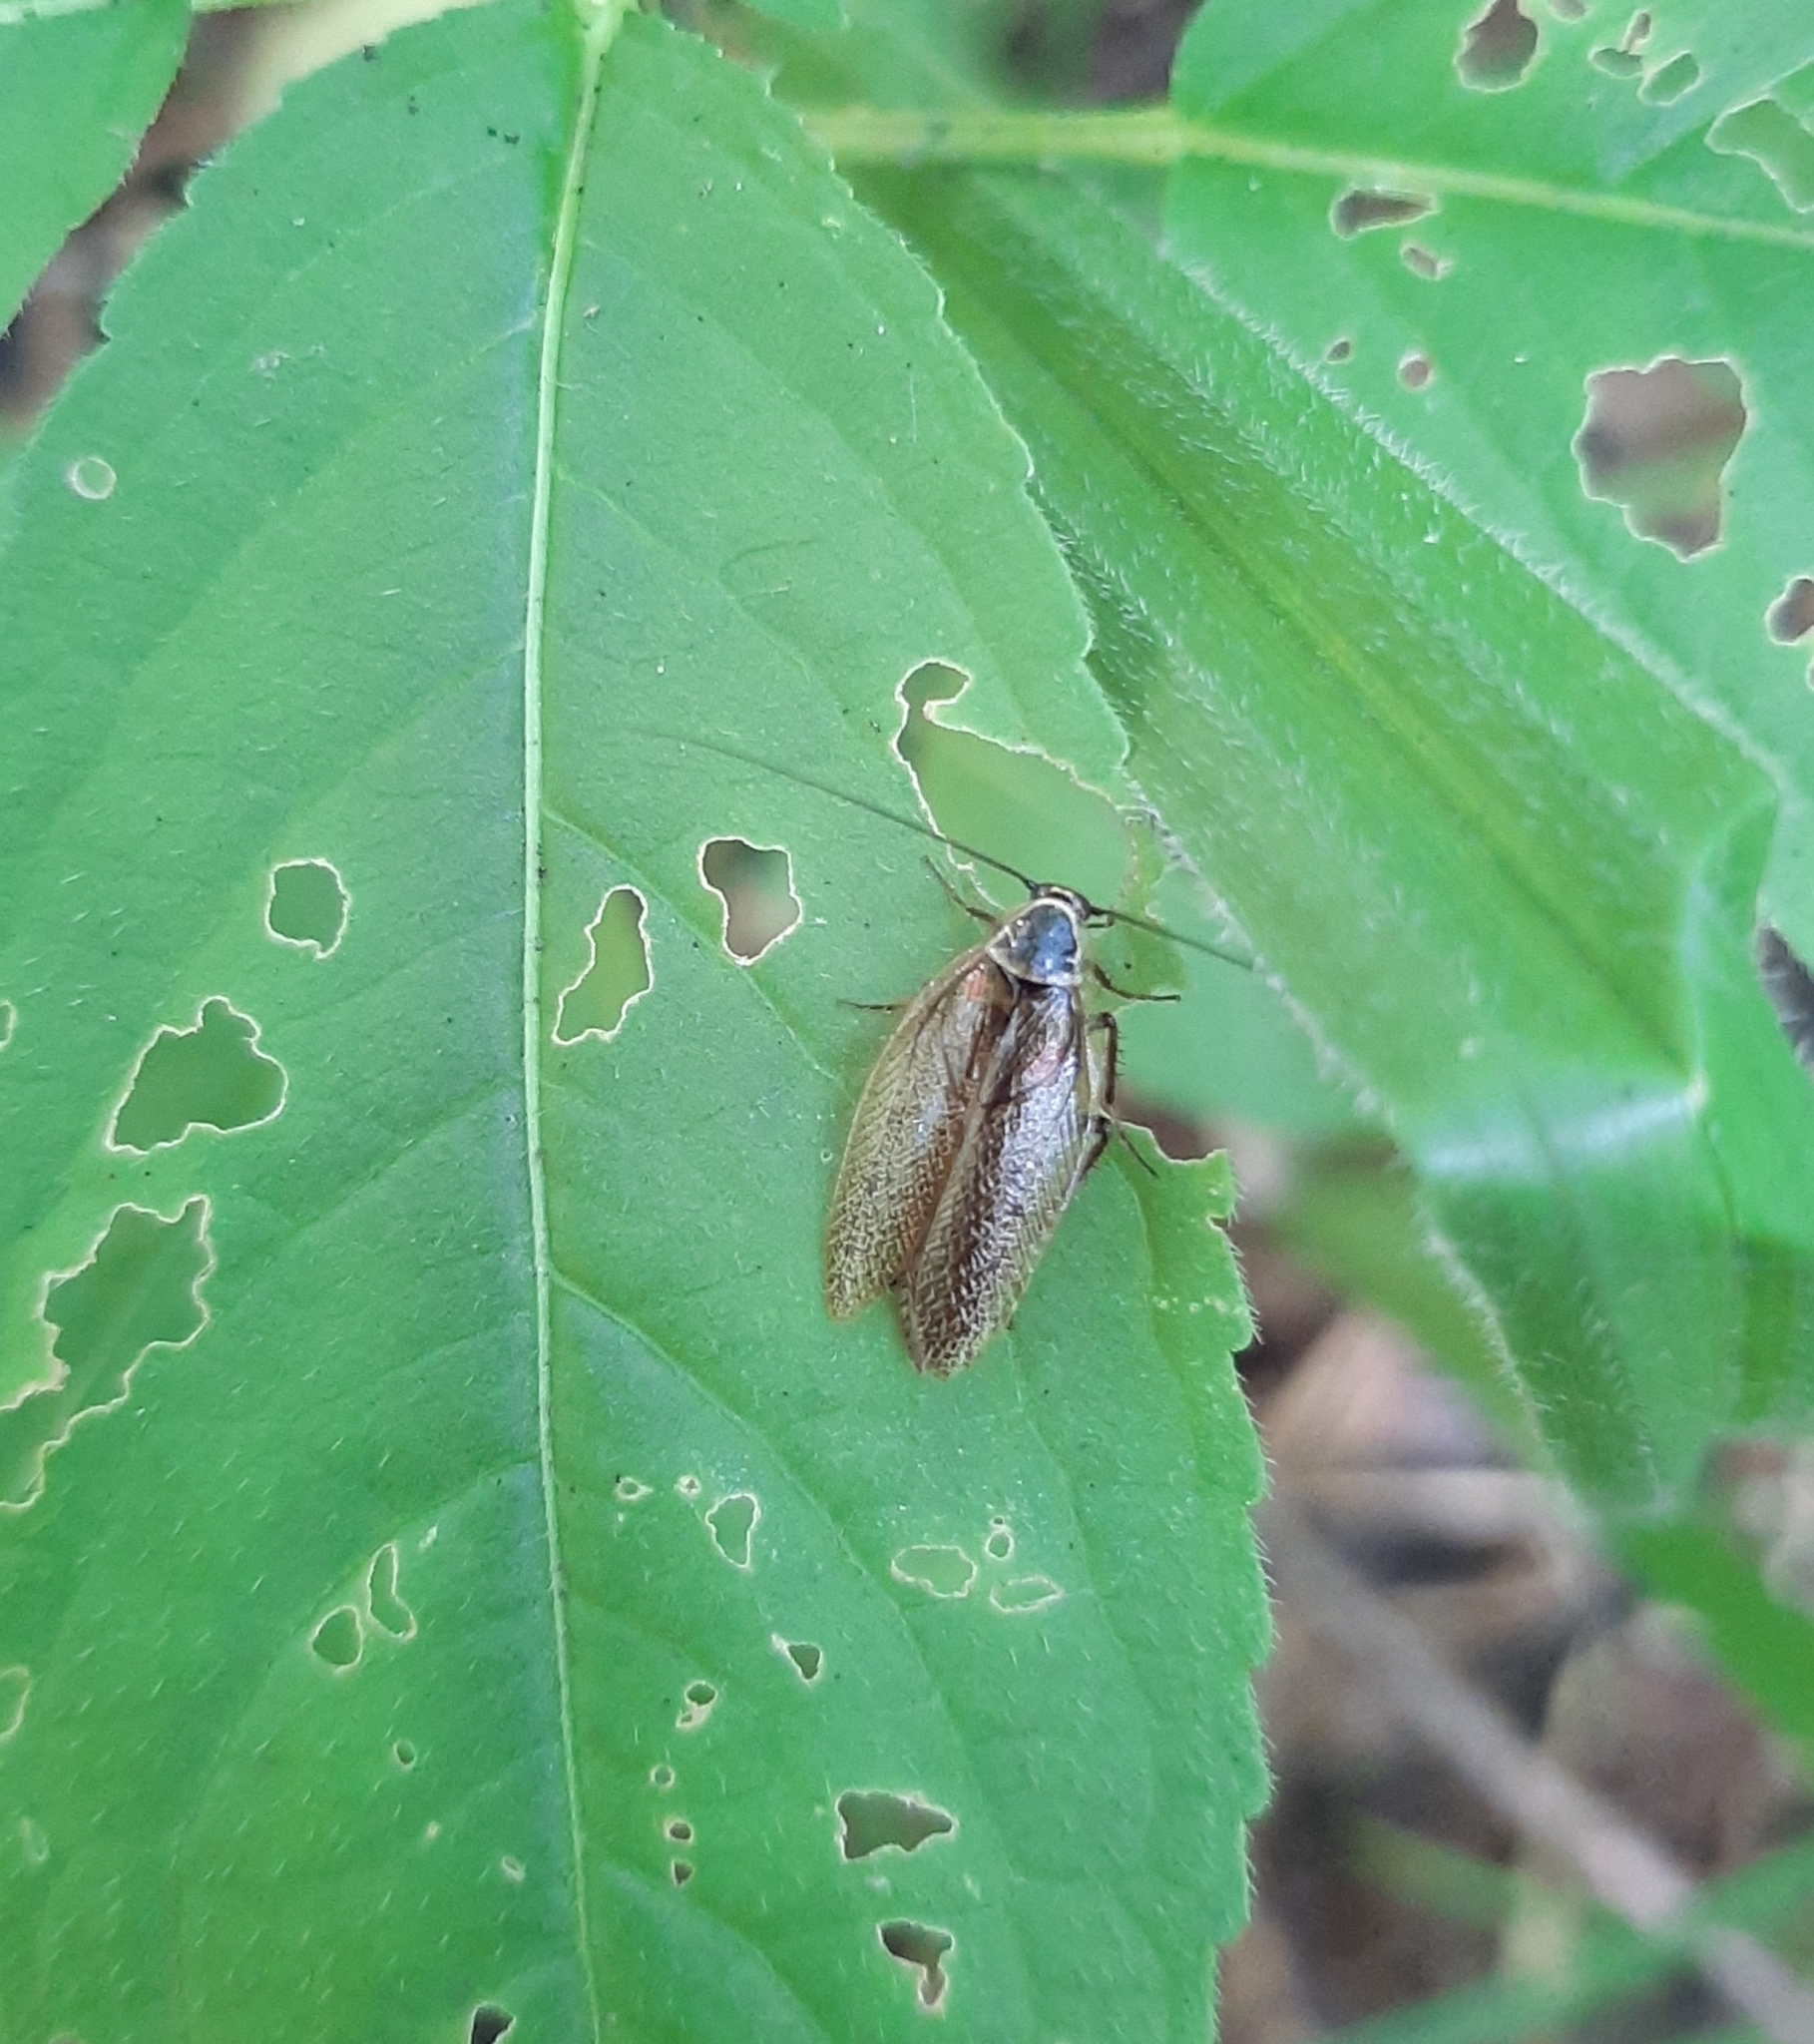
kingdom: Animalia
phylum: Arthropoda
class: Insecta
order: Blattodea
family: Ectobiidae
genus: Ectobius
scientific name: Ectobius sylvestris
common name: Forest cockroach
